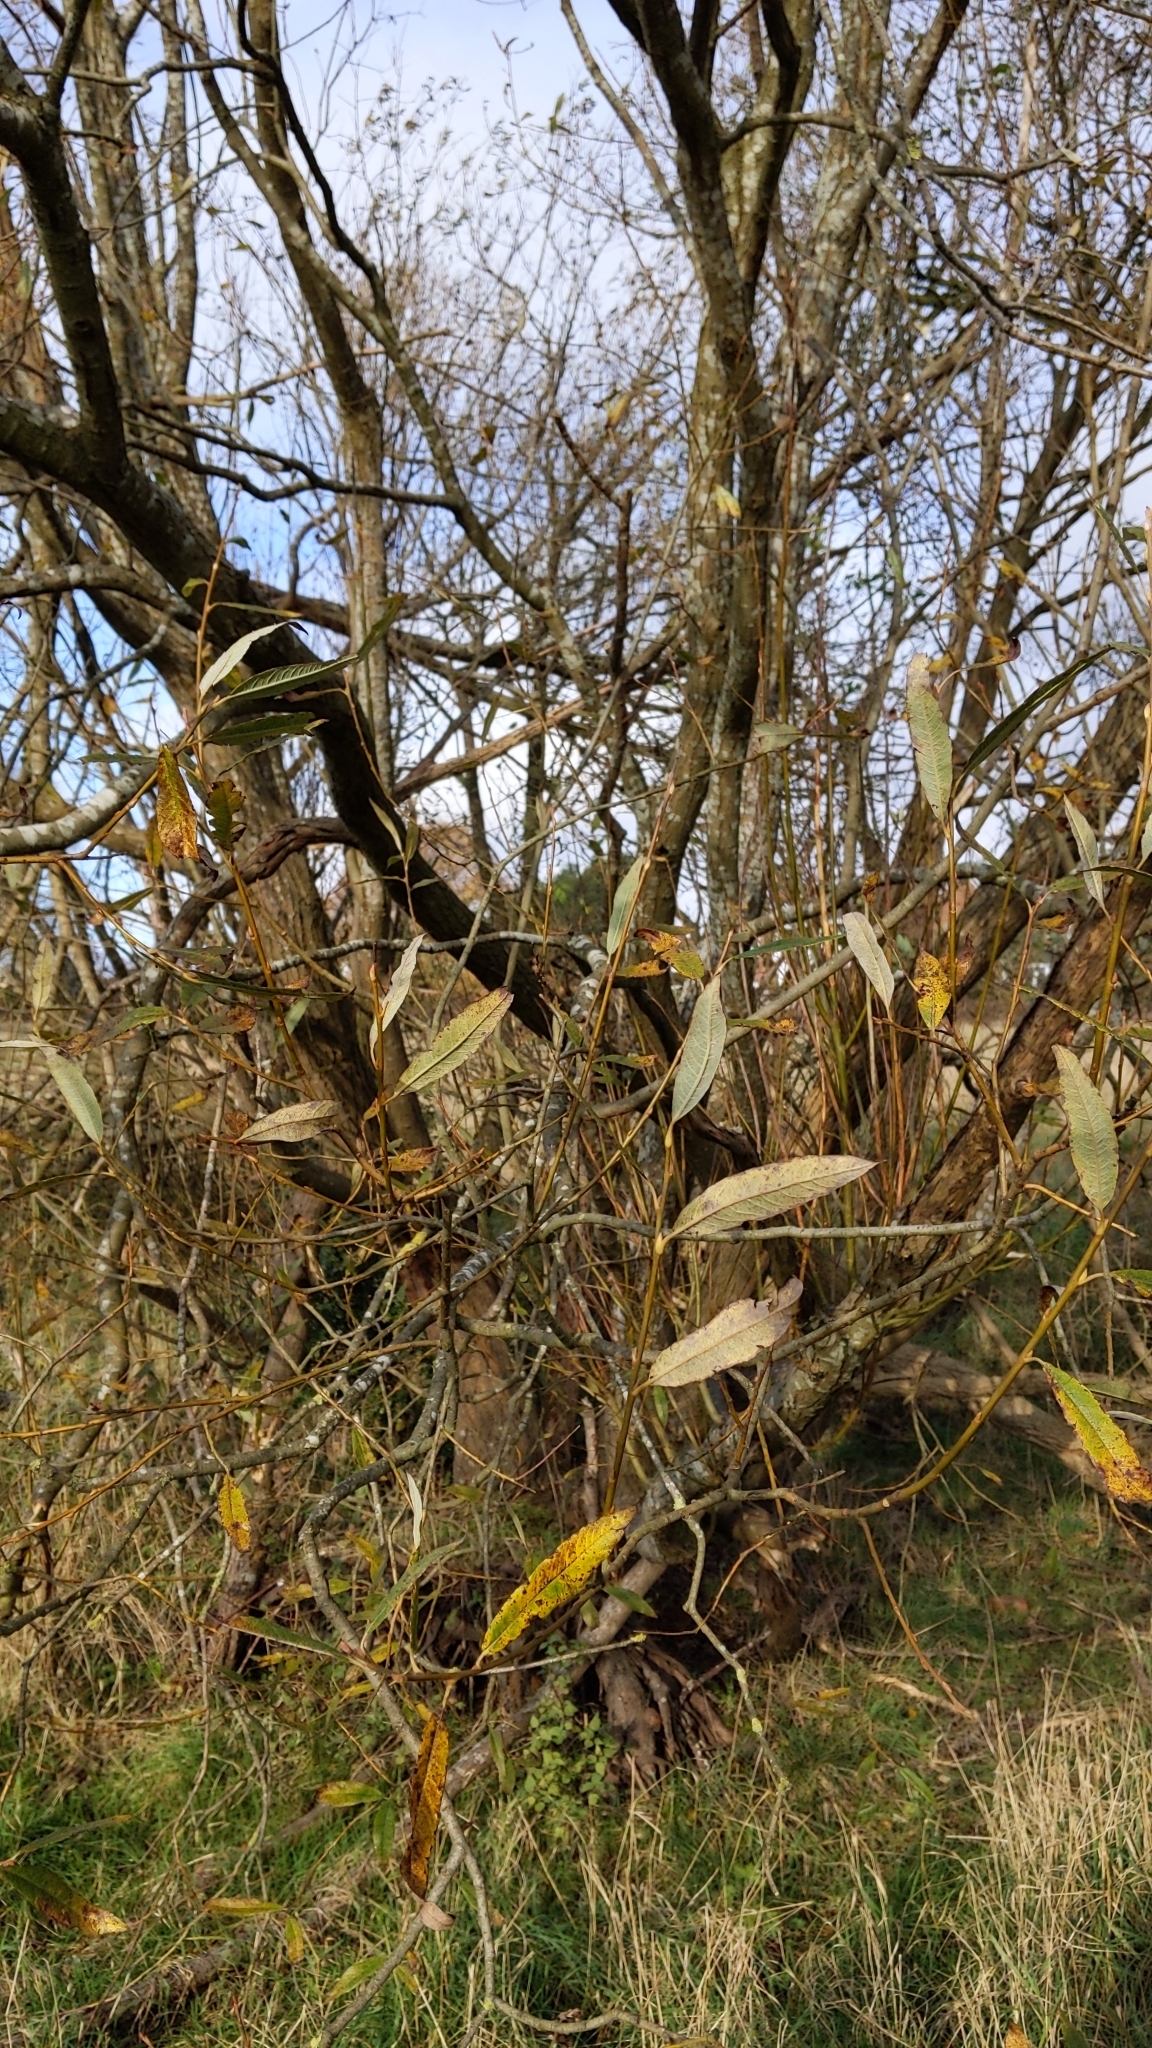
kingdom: Plantae
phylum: Tracheophyta
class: Magnoliopsida
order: Malpighiales
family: Salicaceae
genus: Salix
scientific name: Salix alba
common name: White willow
